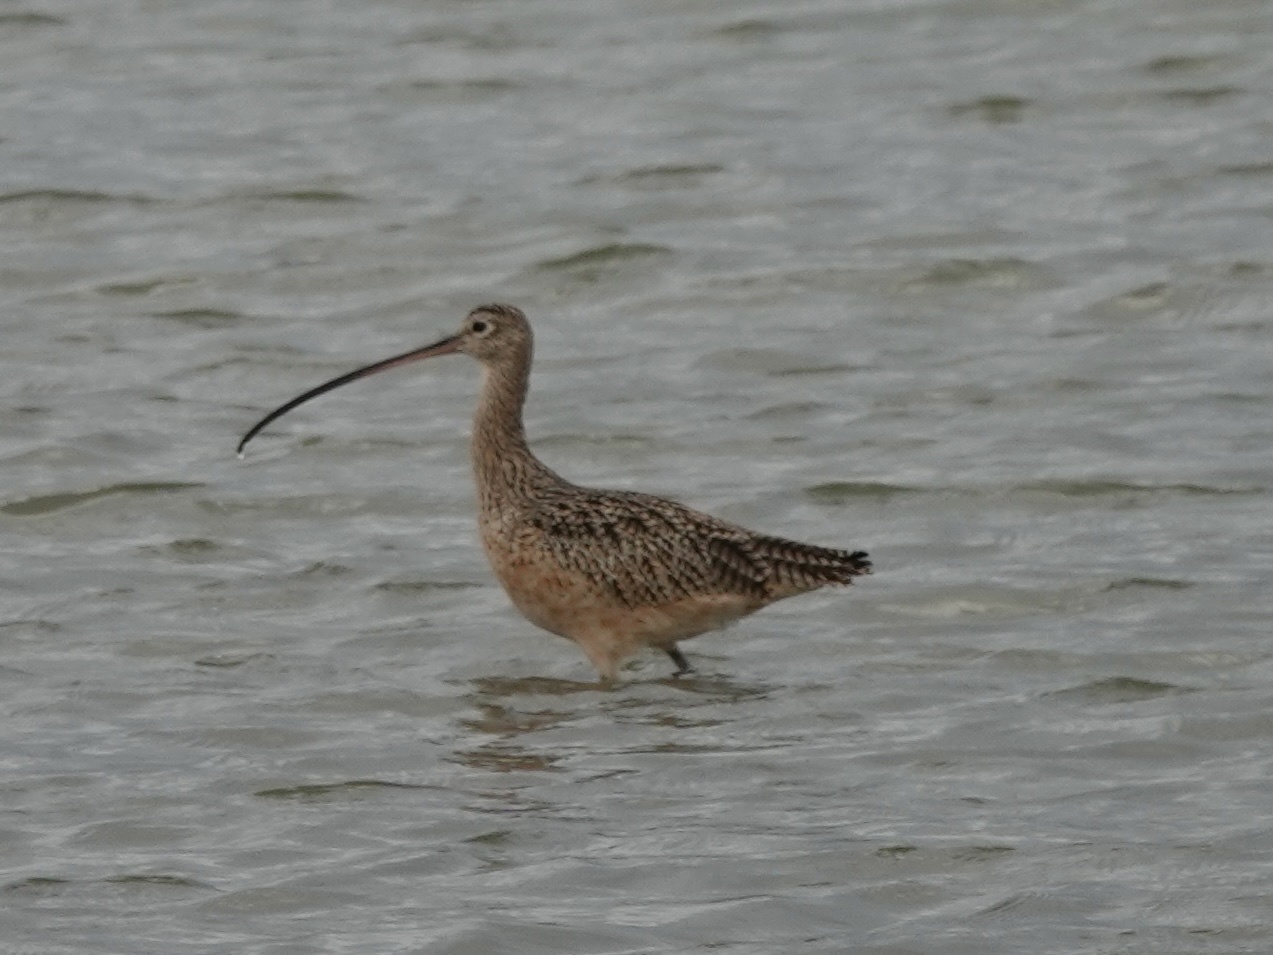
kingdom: Animalia
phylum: Chordata
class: Aves
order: Charadriiformes
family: Scolopacidae
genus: Numenius
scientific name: Numenius americanus
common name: Long-billed curlew
